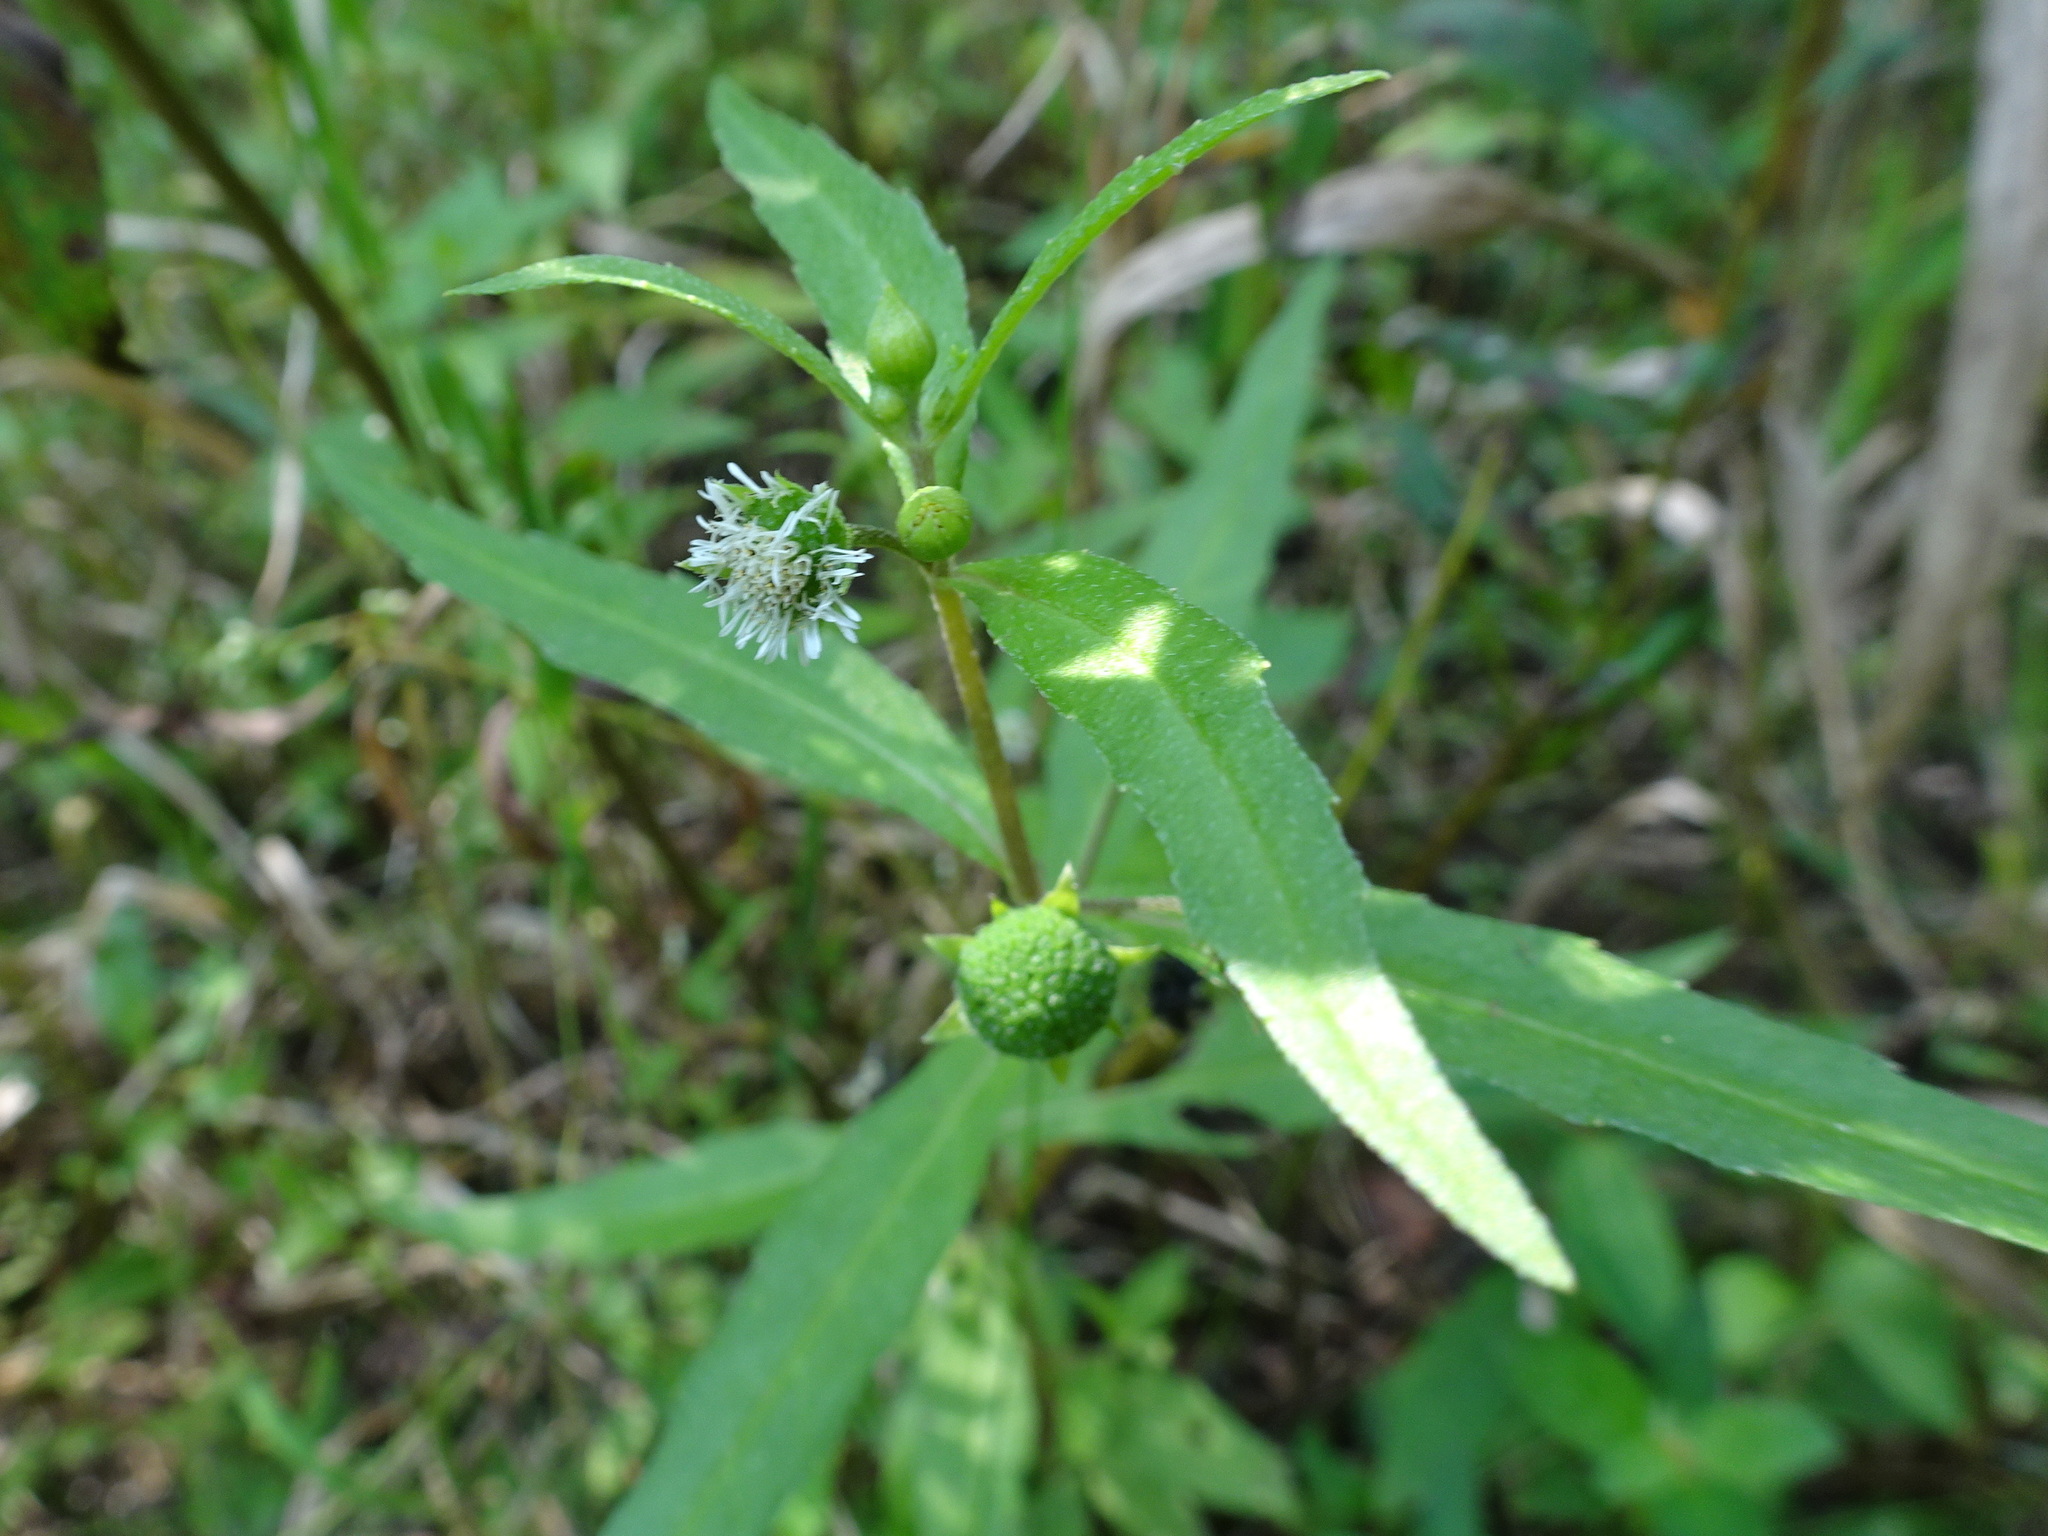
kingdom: Plantae
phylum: Tracheophyta
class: Magnoliopsida
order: Asterales
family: Asteraceae
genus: Eclipta
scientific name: Eclipta prostrata
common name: False daisy
